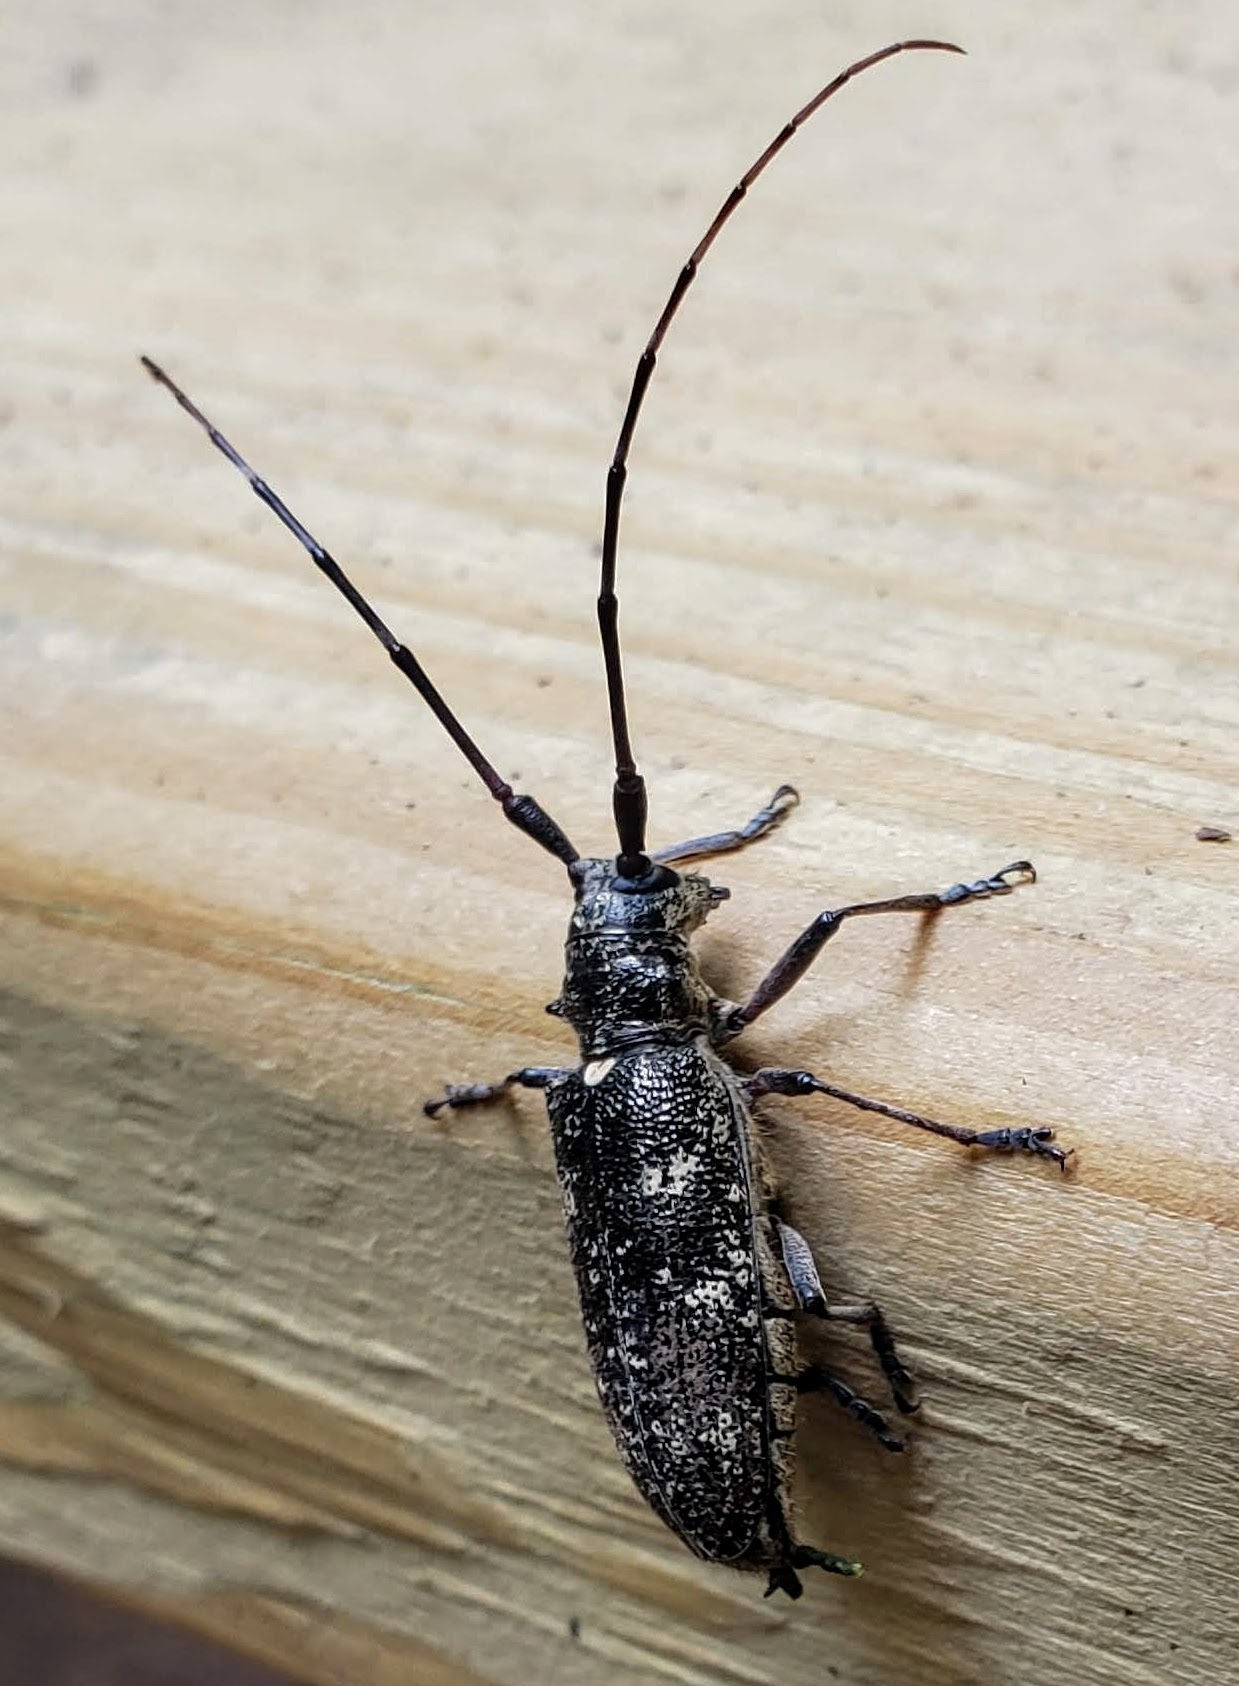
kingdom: Animalia
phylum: Arthropoda
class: Insecta
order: Coleoptera
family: Cerambycidae
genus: Monochamus
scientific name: Monochamus scutellatus
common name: White-spotted sawyer beetle
